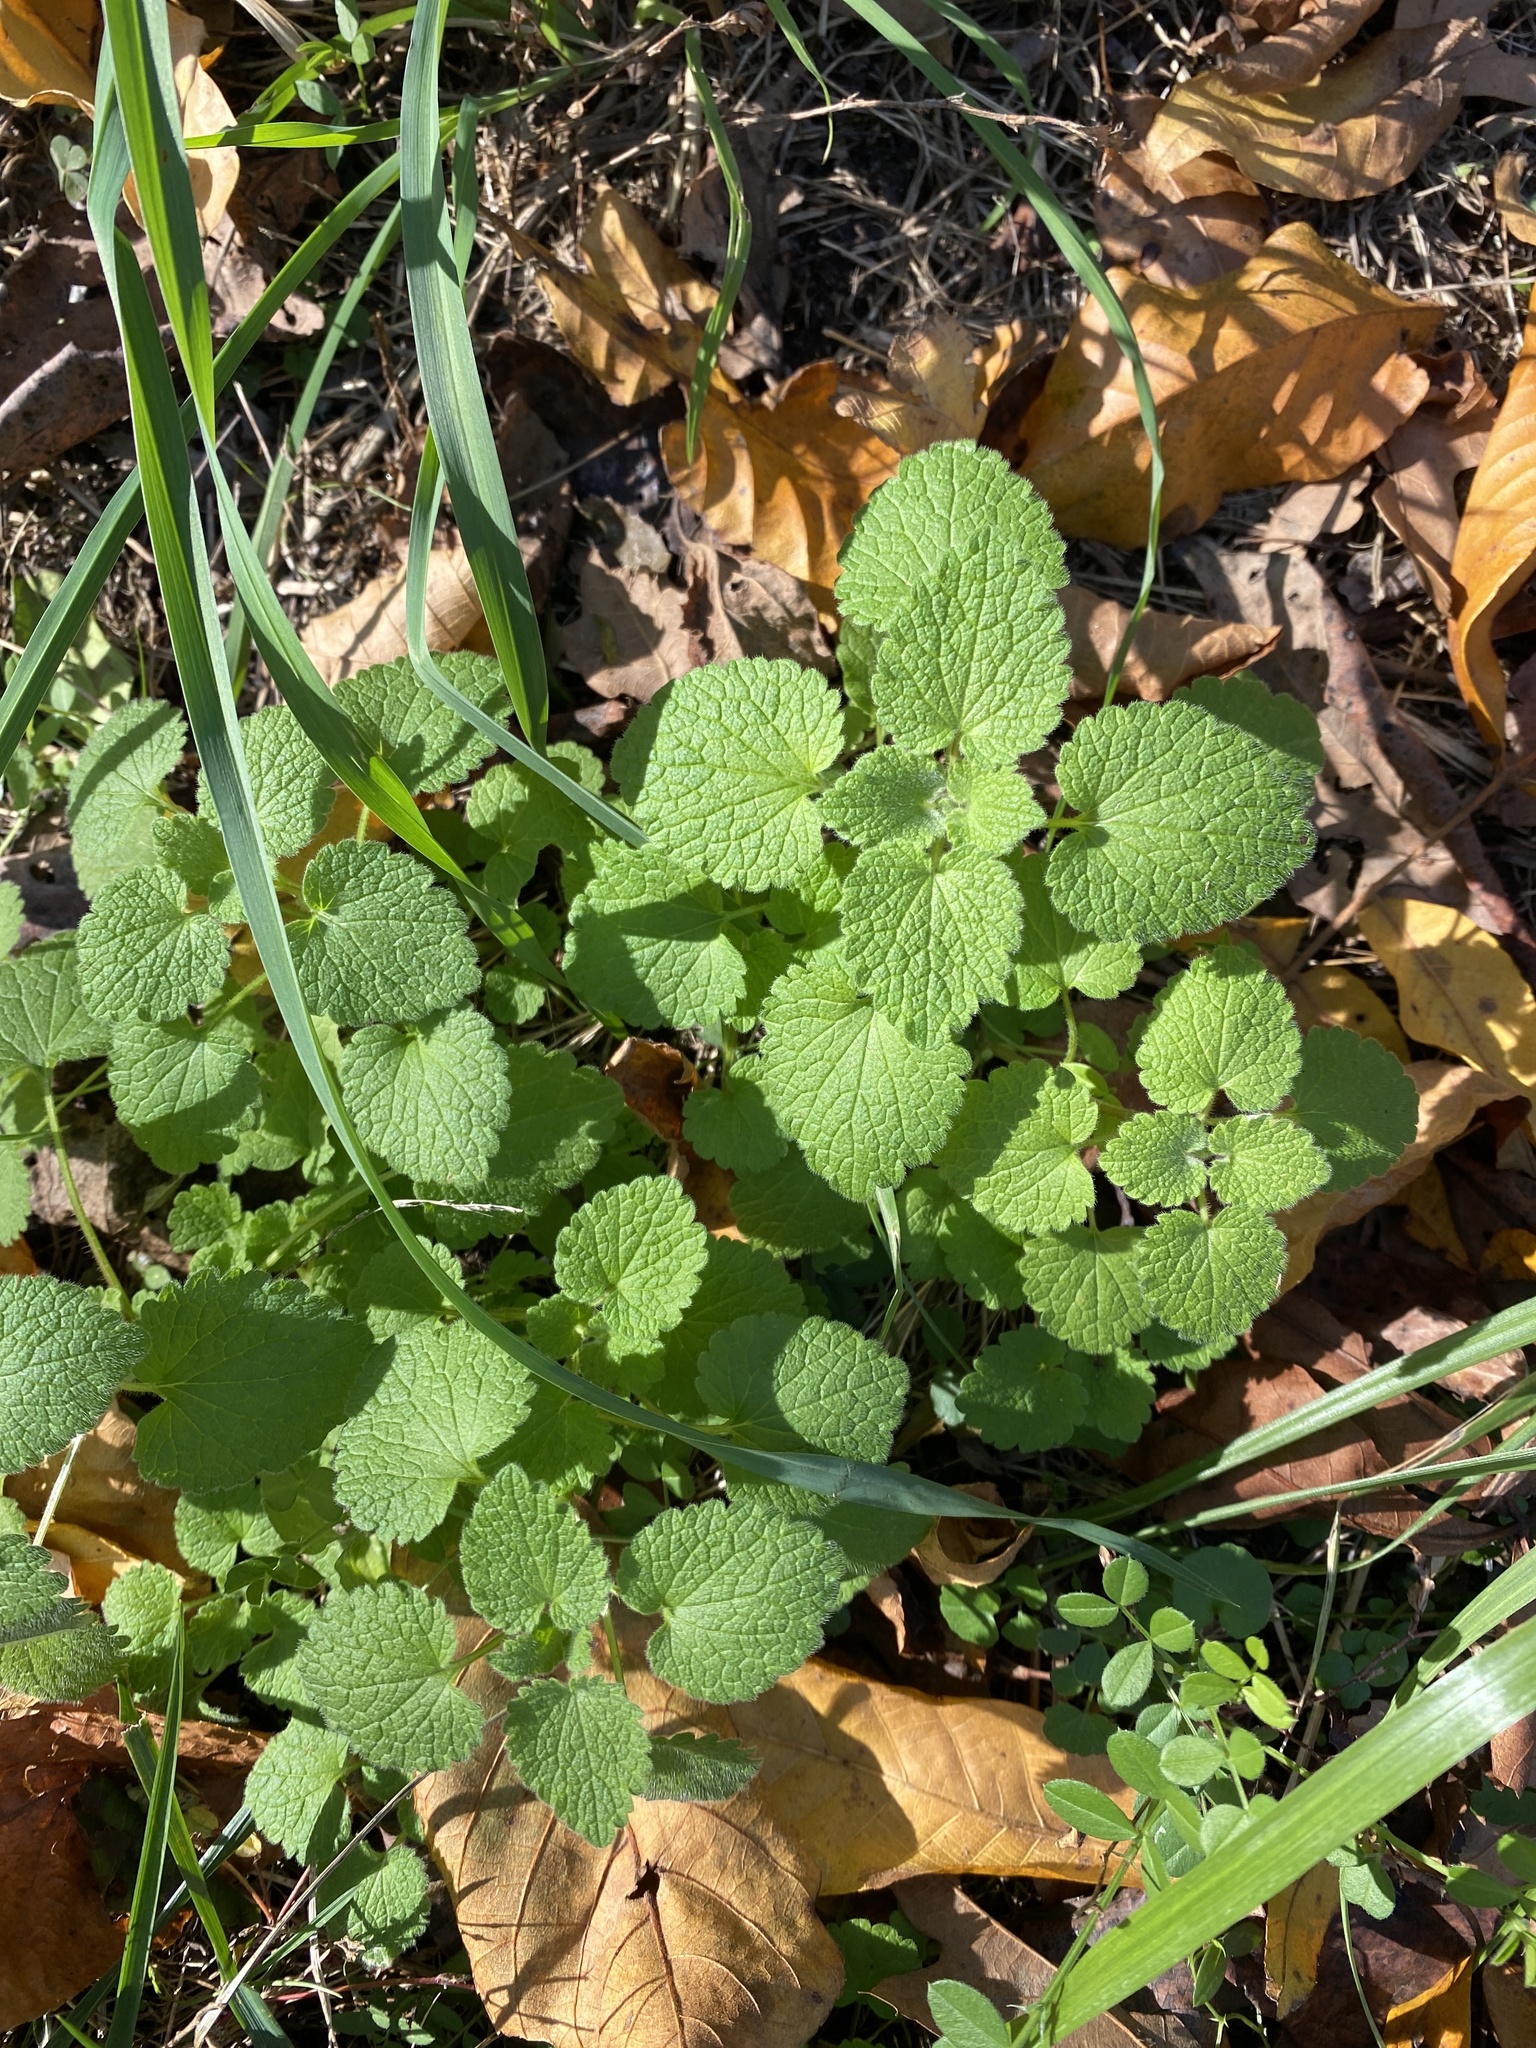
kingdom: Plantae
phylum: Tracheophyta
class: Magnoliopsida
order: Lamiales
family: Lamiaceae
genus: Lamium
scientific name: Lamium purpureum
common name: Red dead-nettle
